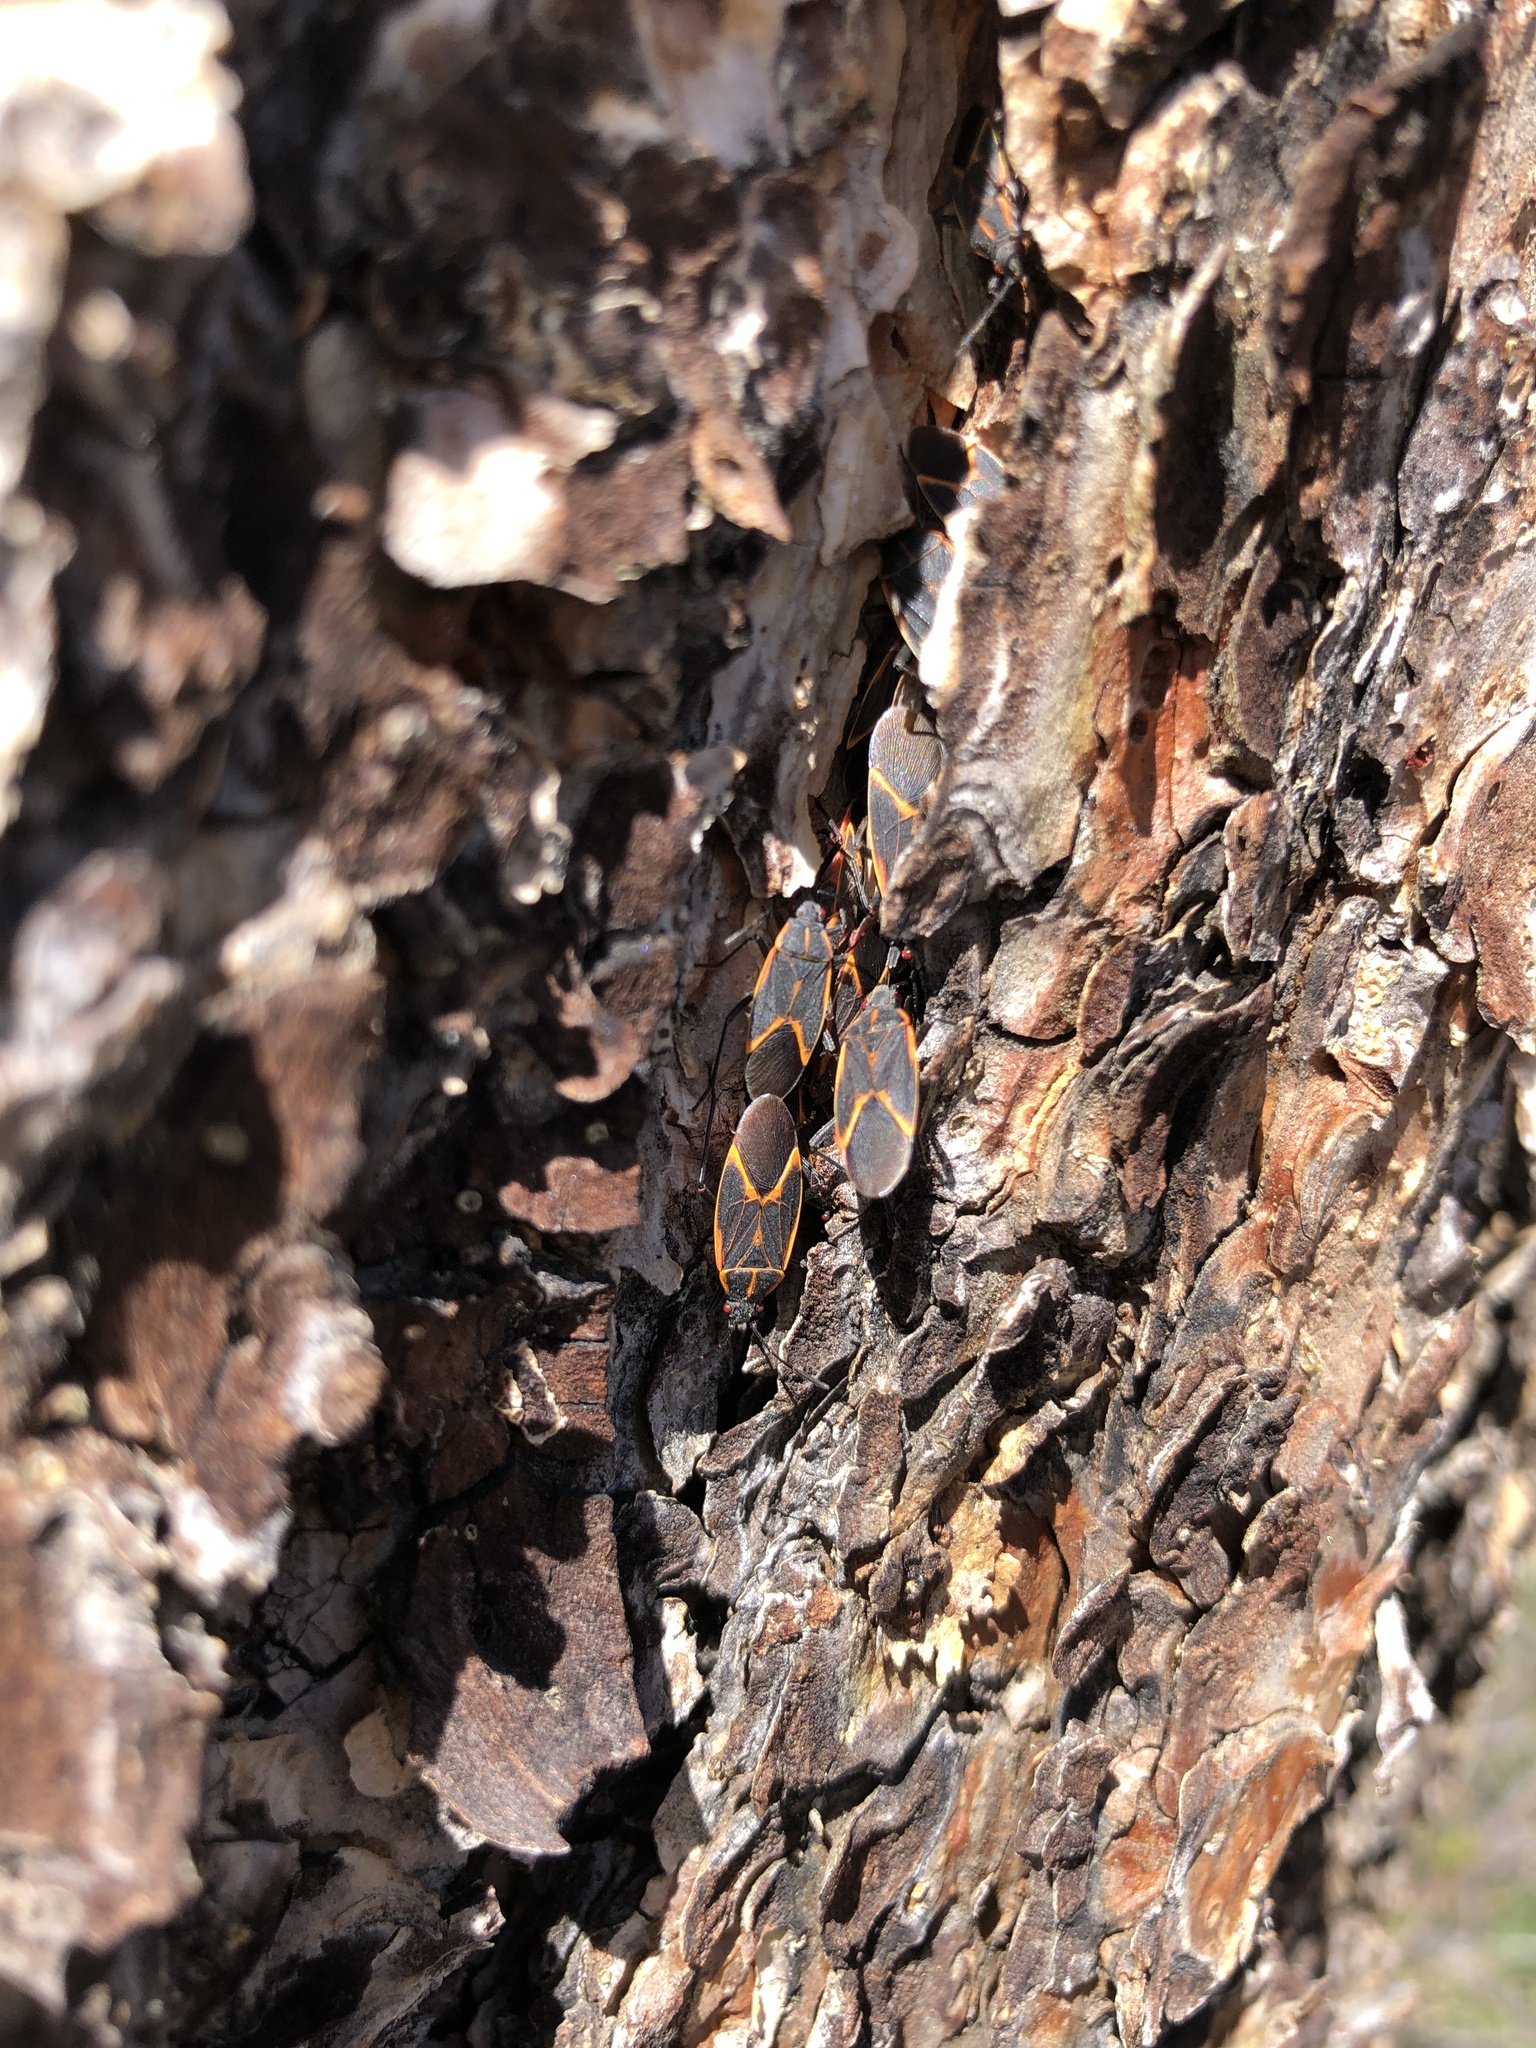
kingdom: Animalia
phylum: Arthropoda
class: Insecta
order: Hemiptera
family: Rhopalidae
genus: Boisea
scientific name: Boisea trivittata
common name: Boxelder bug
